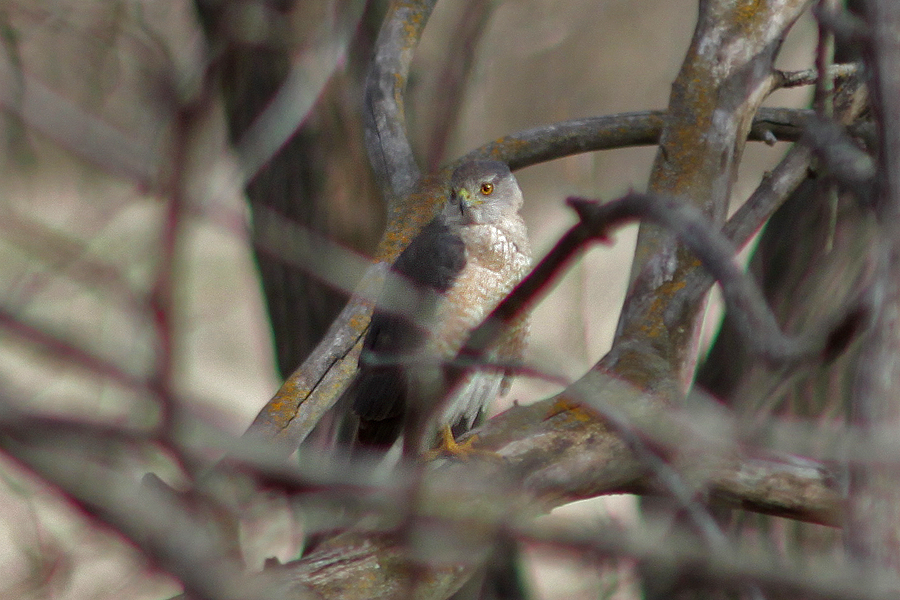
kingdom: Animalia
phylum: Chordata
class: Aves
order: Accipitriformes
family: Accipitridae
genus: Accipiter
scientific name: Accipiter cooperii
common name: Cooper's hawk
